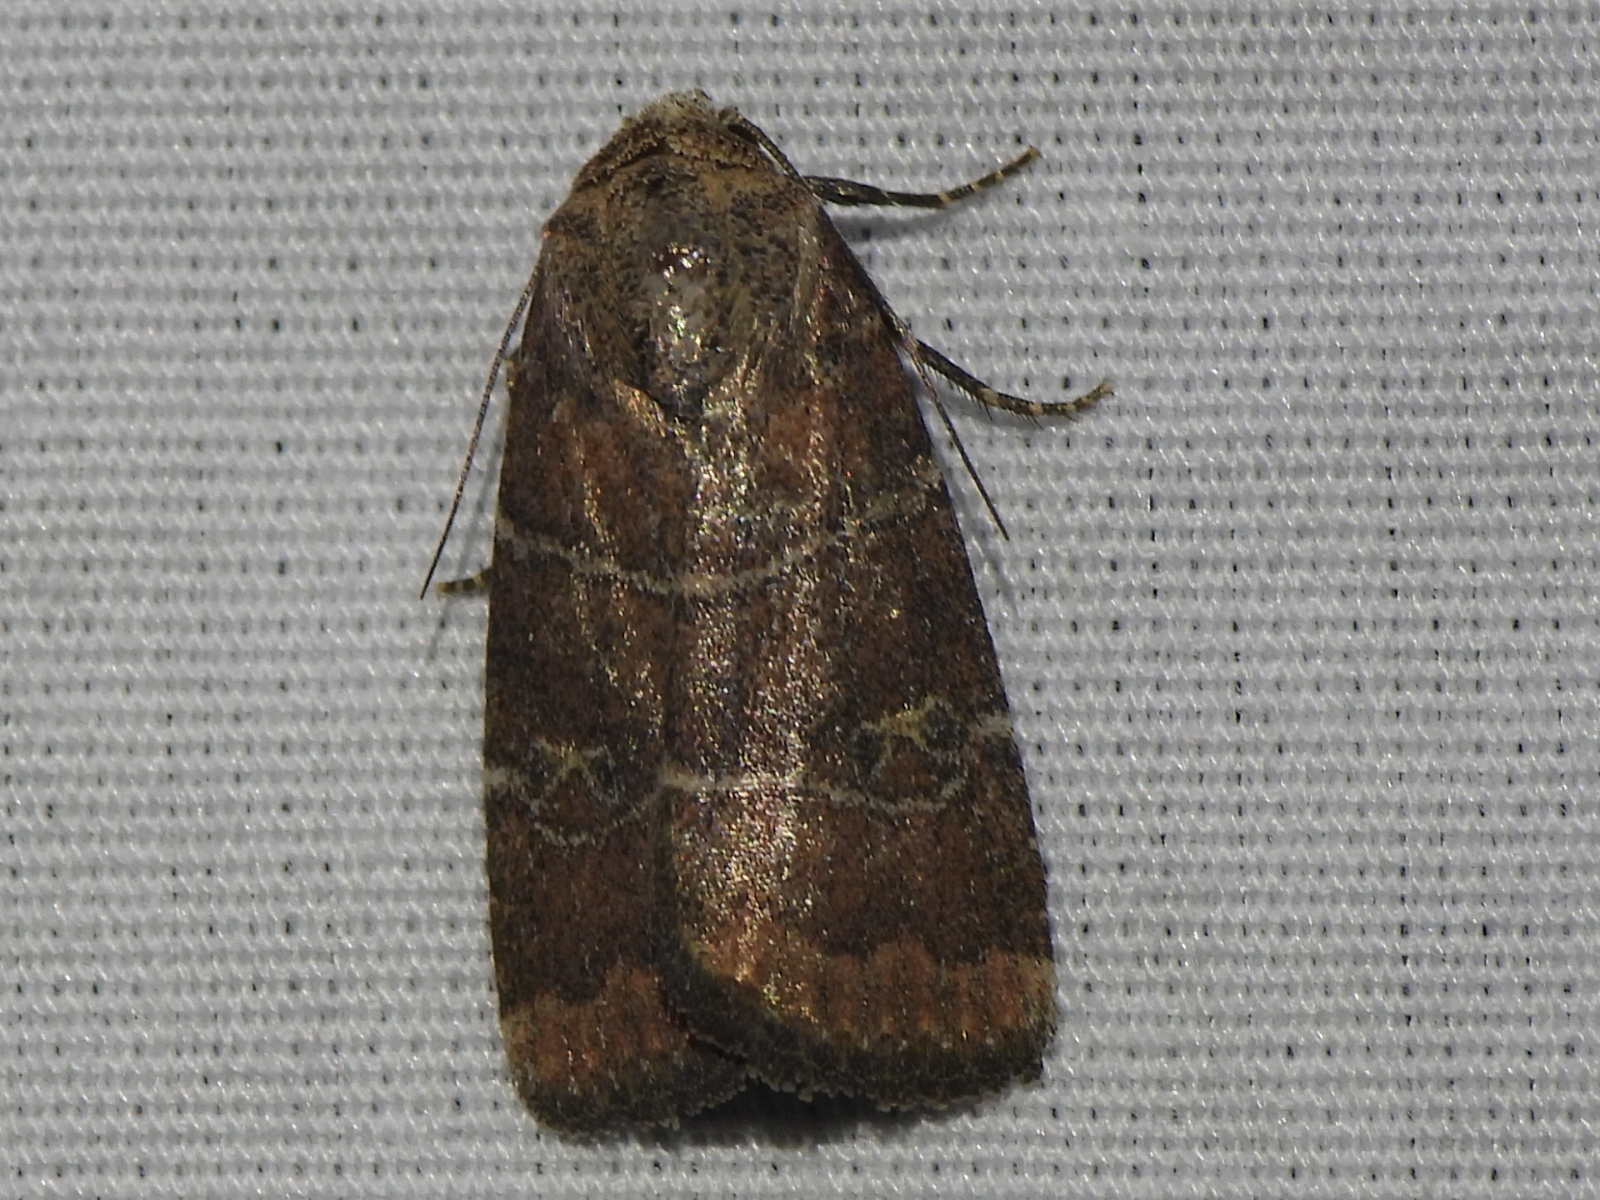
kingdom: Animalia
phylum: Arthropoda
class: Insecta
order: Lepidoptera
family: Noctuidae
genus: Elaphria
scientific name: Elaphria grata
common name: Grateful midget moth
